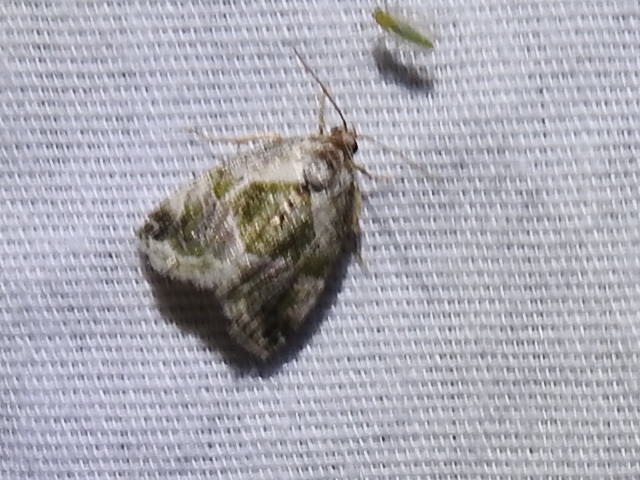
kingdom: Animalia
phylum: Arthropoda
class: Insecta
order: Lepidoptera
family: Noctuidae
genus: Maliattha
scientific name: Maliattha synochitis
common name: Black-dotted glyph
